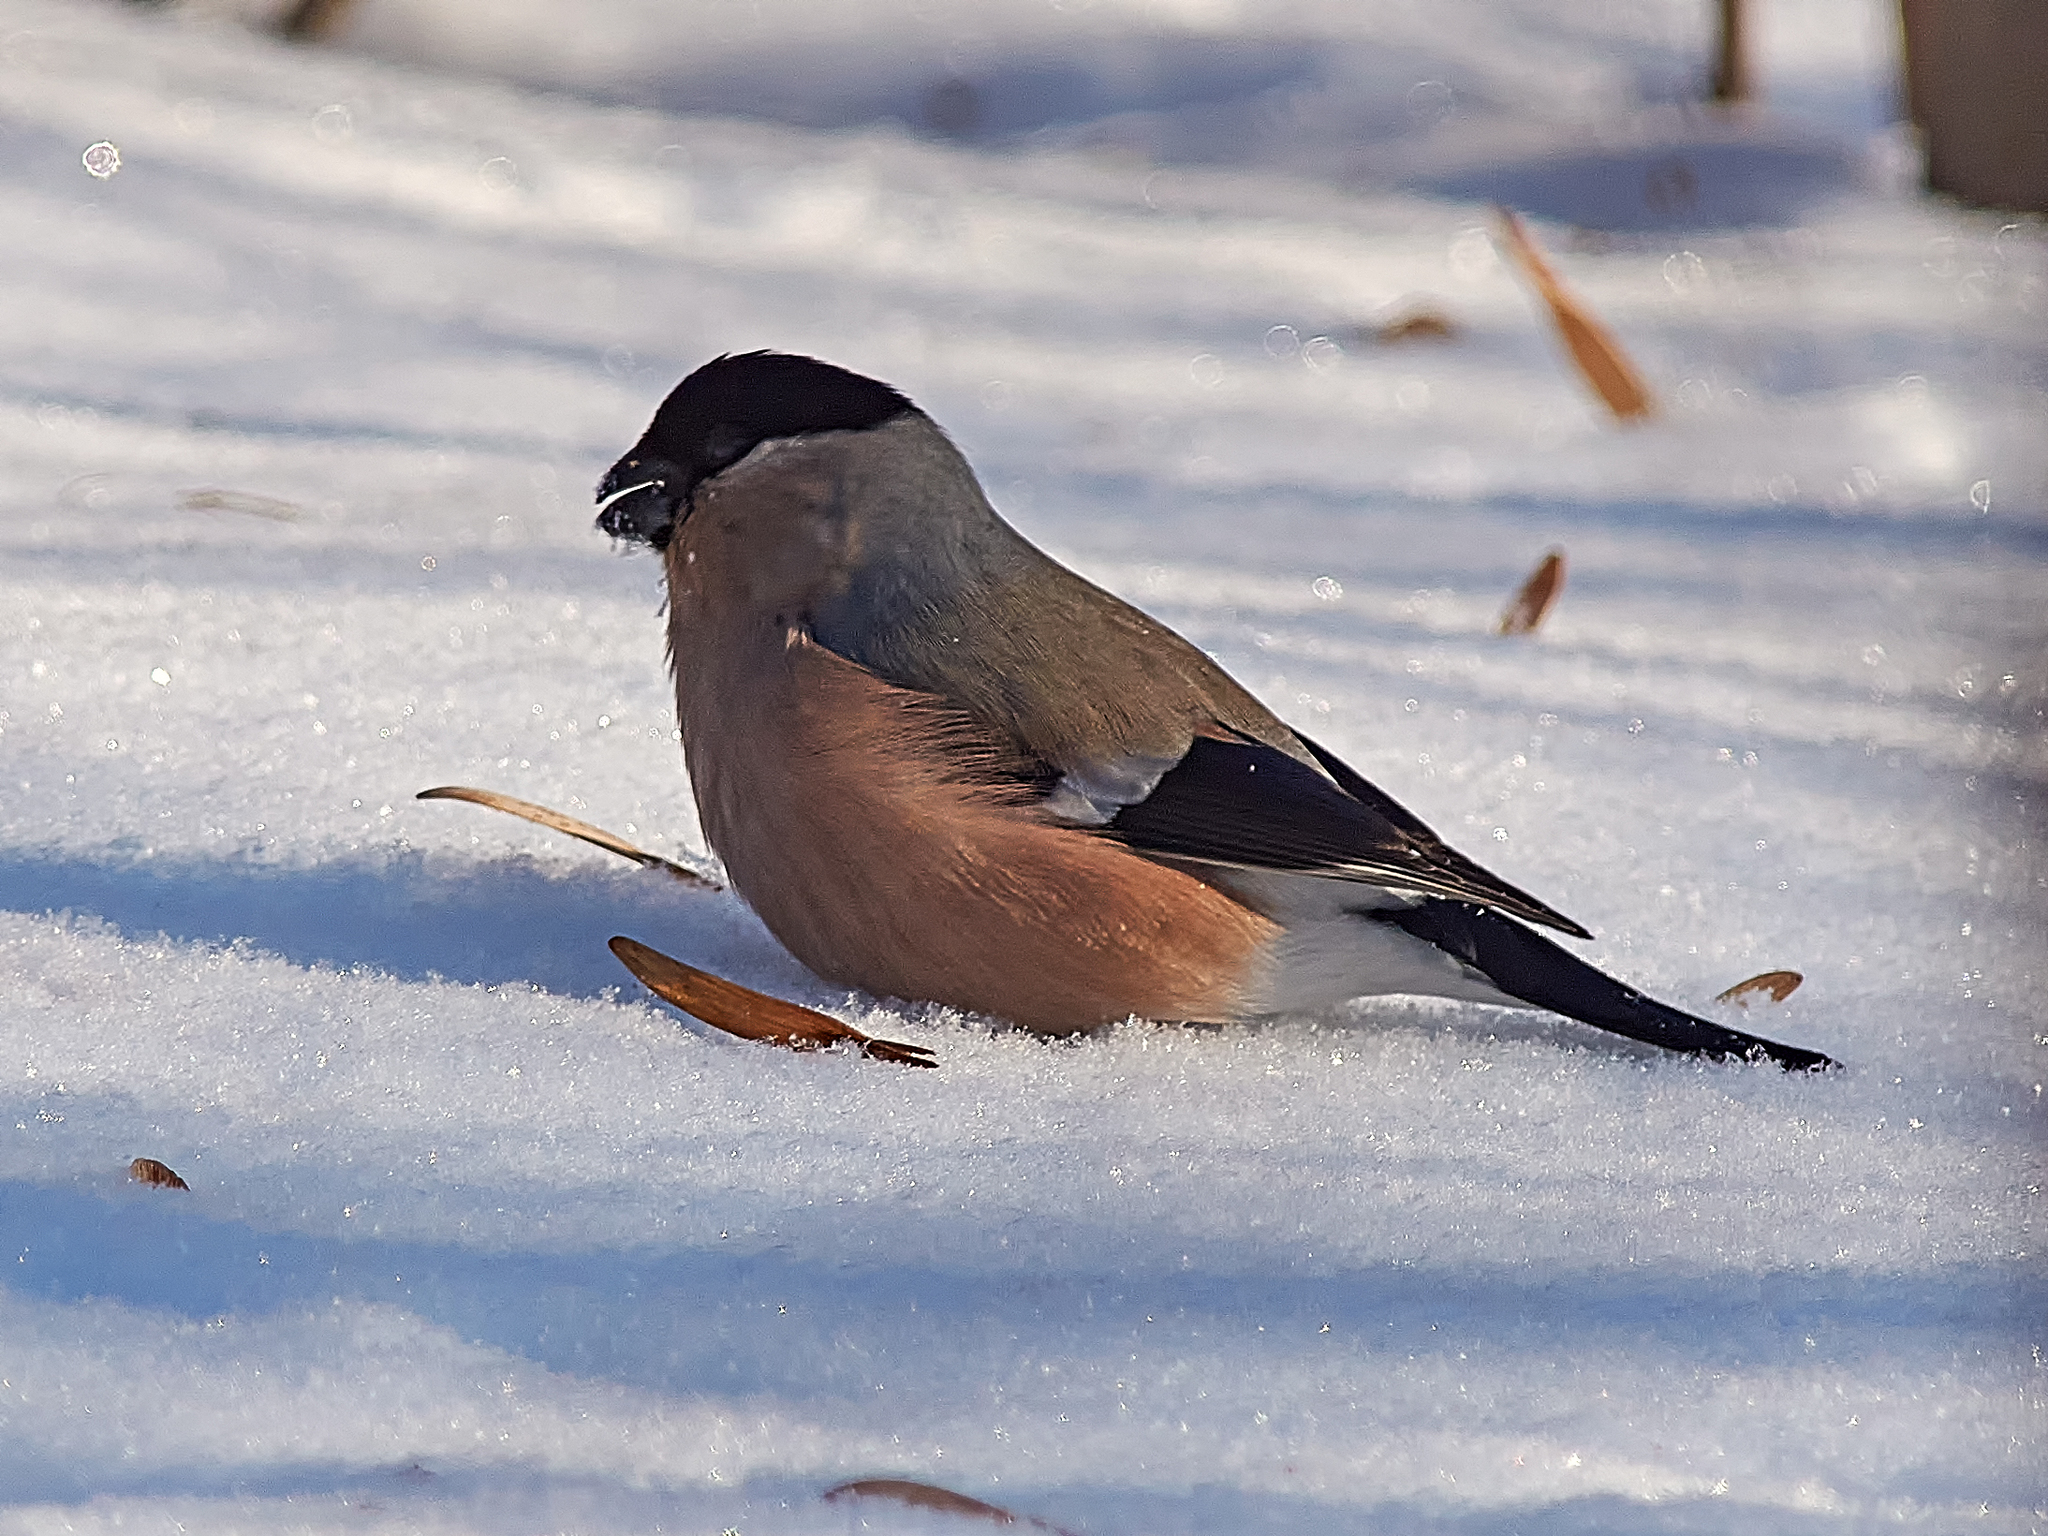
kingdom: Animalia
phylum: Chordata
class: Aves
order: Passeriformes
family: Fringillidae
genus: Pyrrhula
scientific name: Pyrrhula pyrrhula
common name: Eurasian bullfinch
